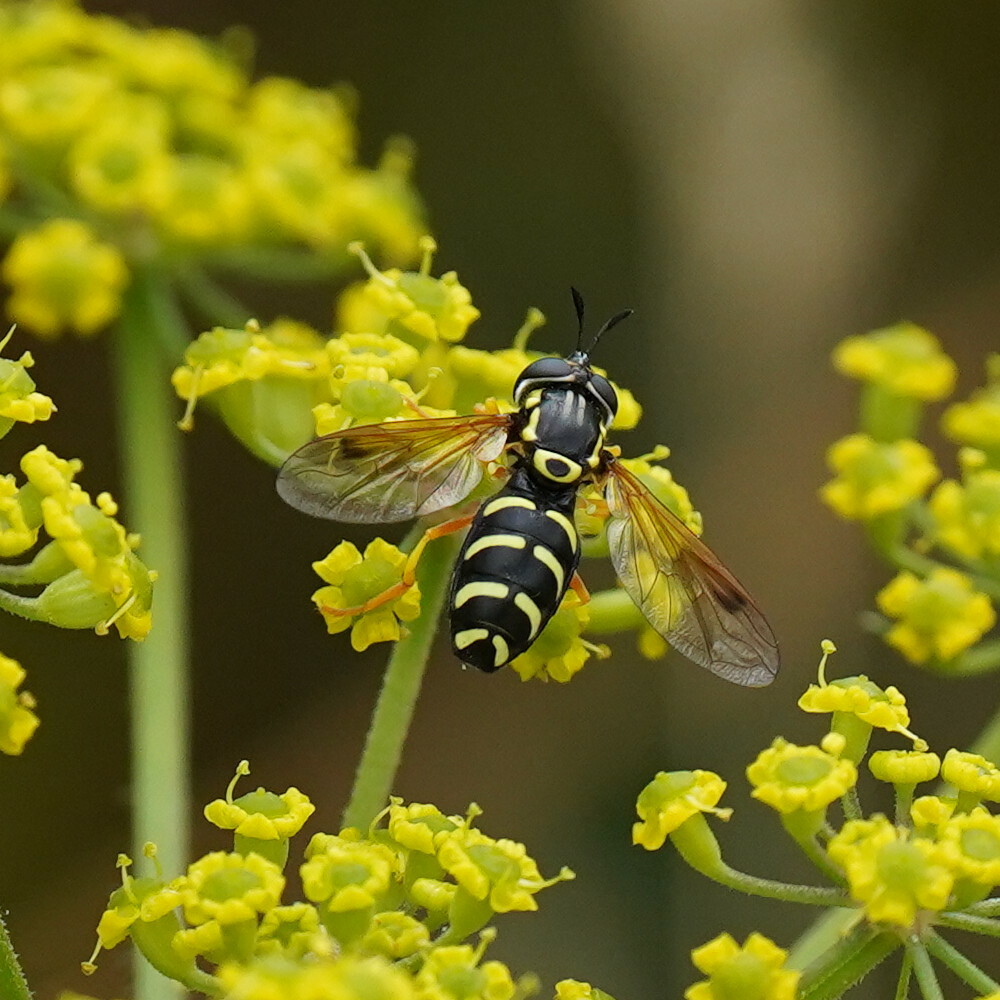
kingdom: Animalia
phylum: Arthropoda
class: Insecta
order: Diptera
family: Syrphidae
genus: Chrysotoxum
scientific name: Chrysotoxum festivum
